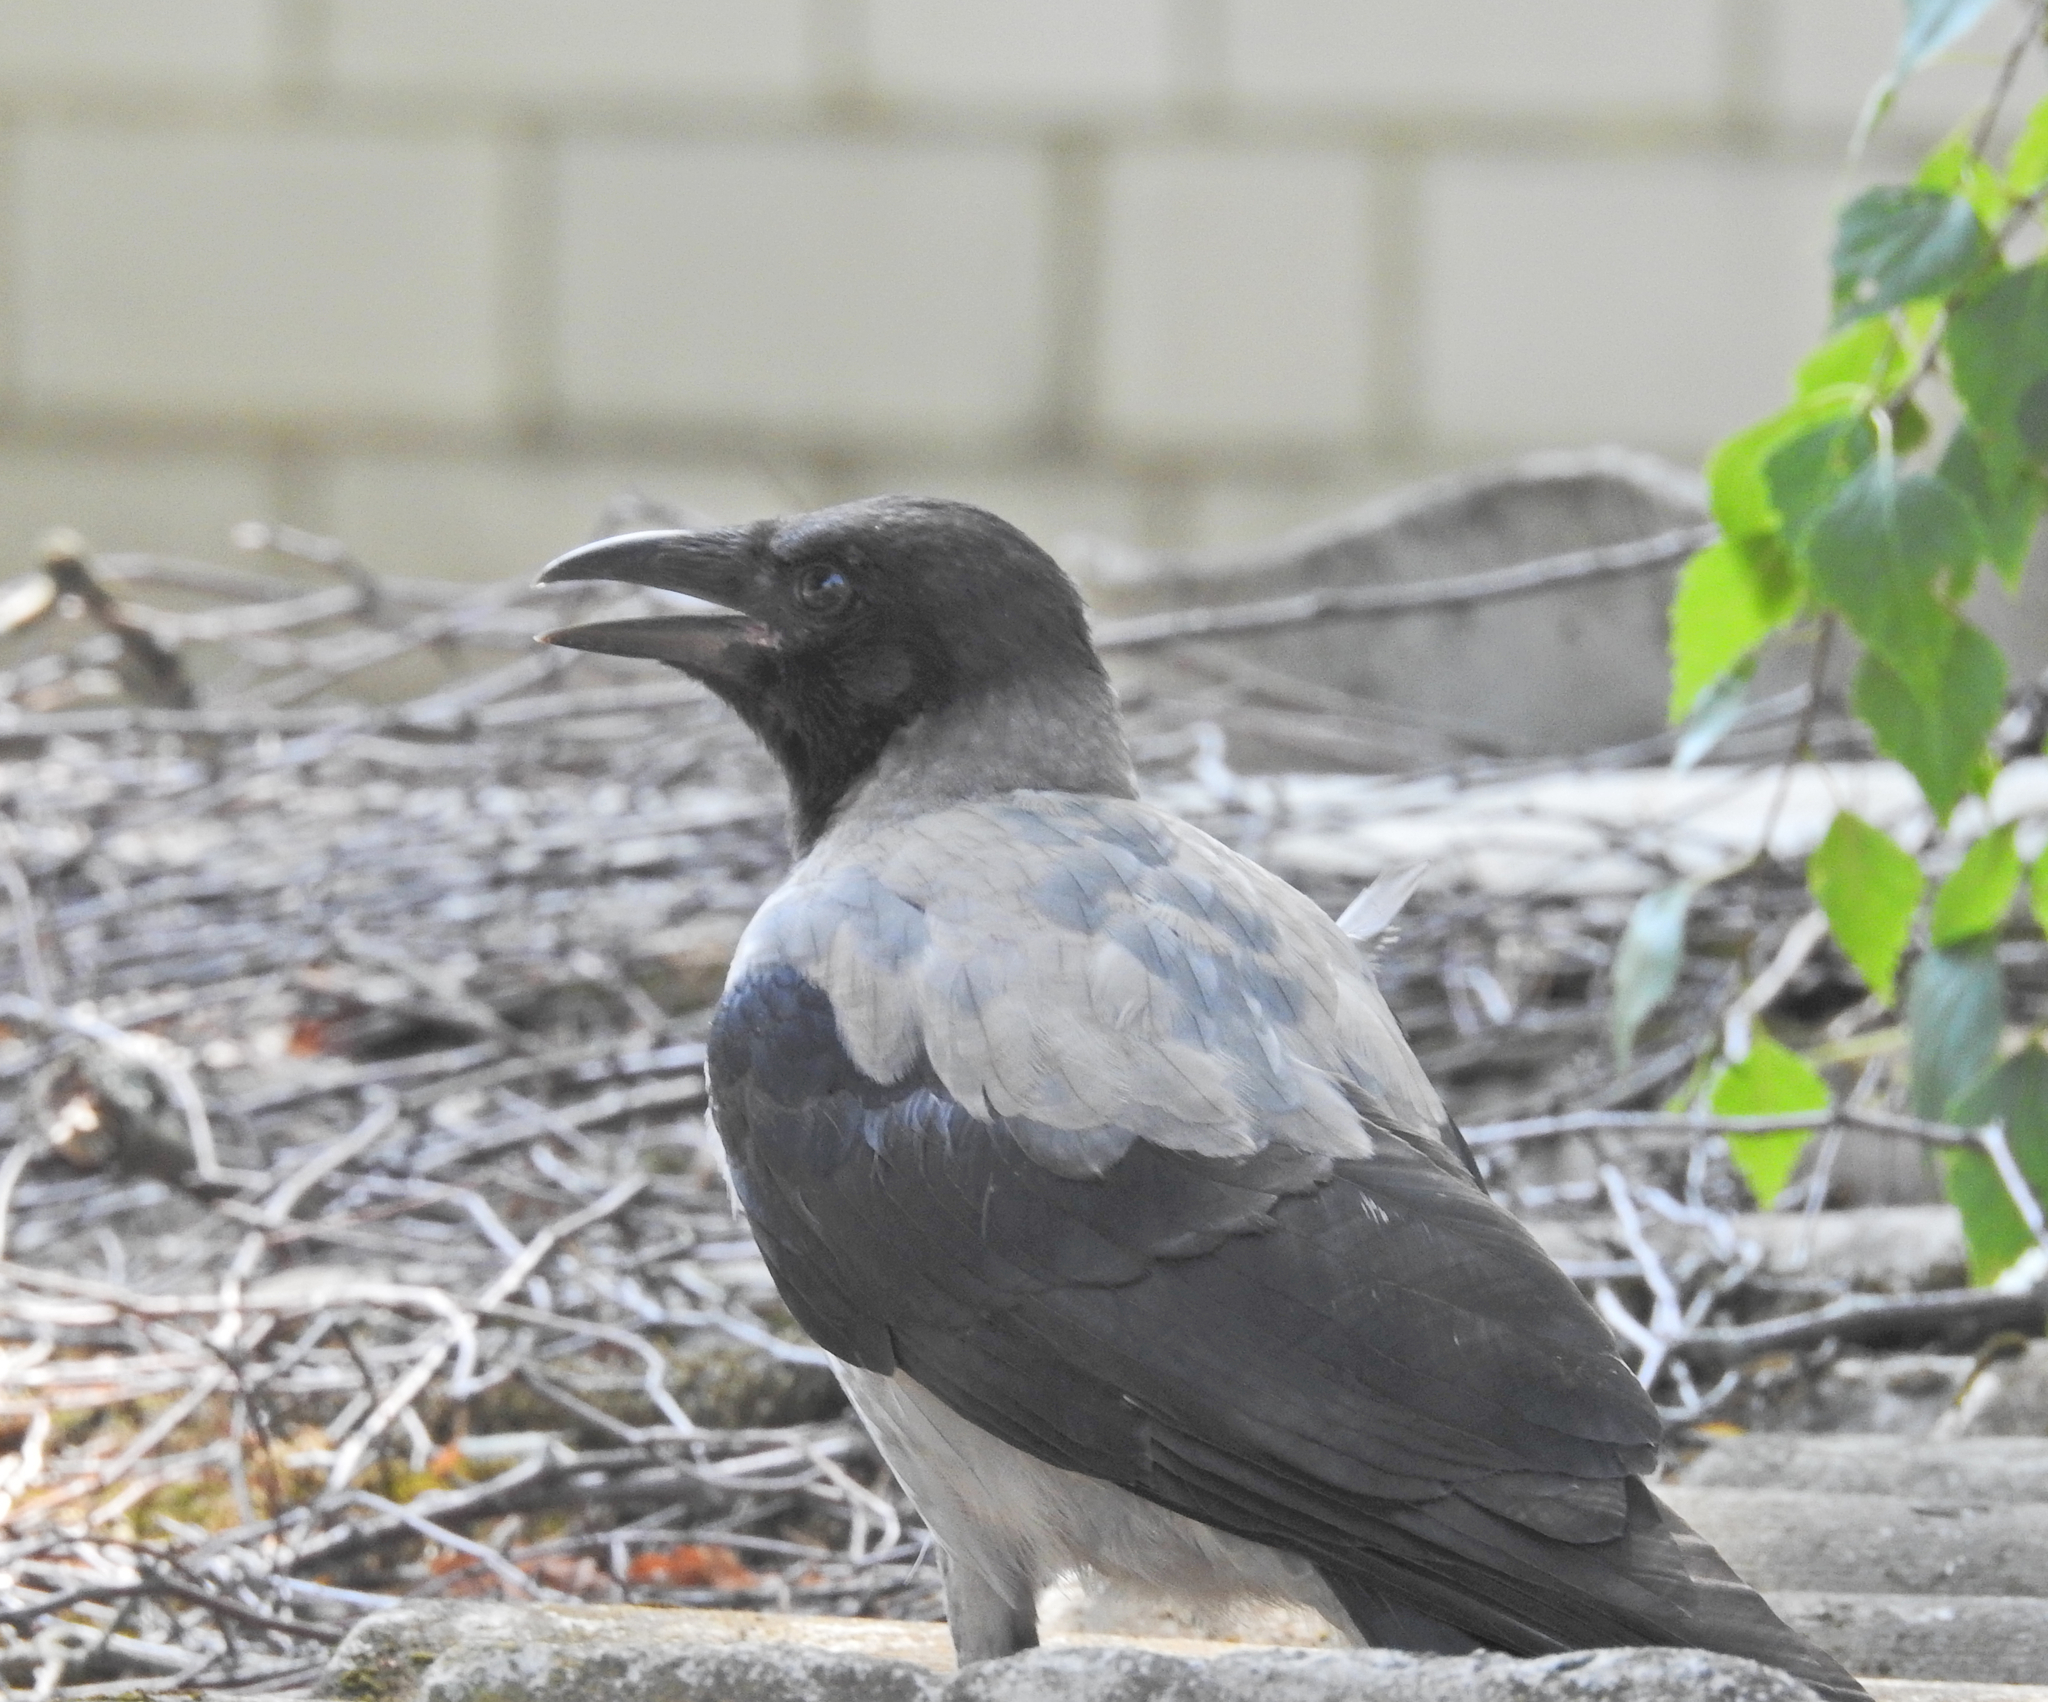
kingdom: Animalia
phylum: Chordata
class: Aves
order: Passeriformes
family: Corvidae
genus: Corvus
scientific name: Corvus cornix
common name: Hooded crow
